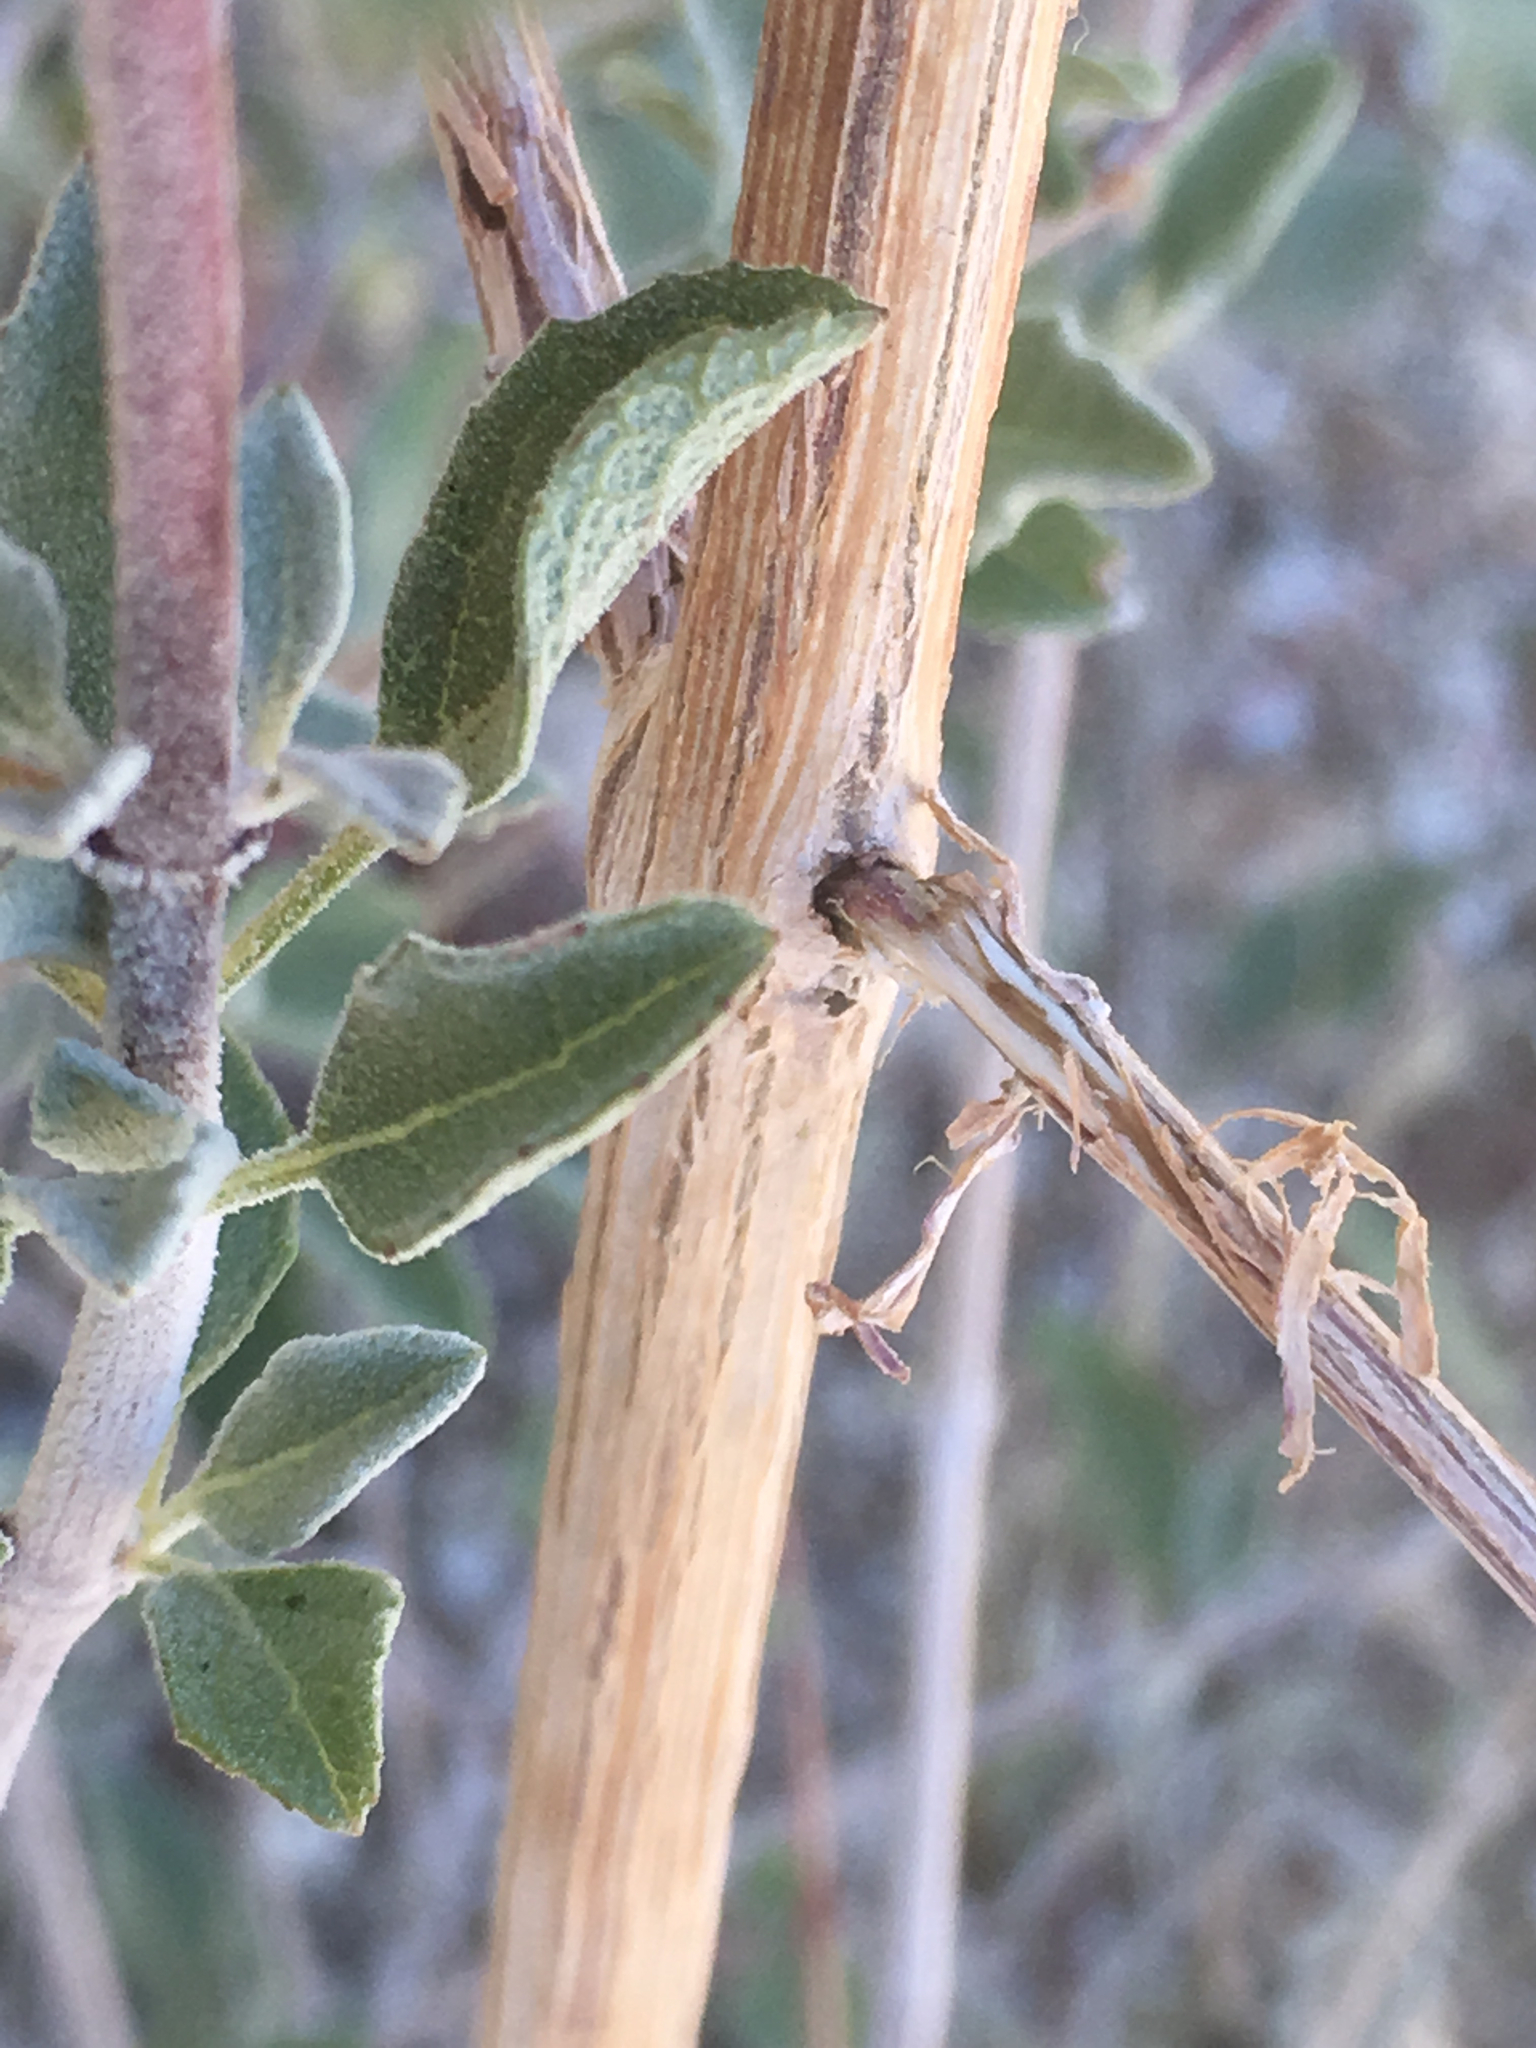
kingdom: Plantae
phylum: Tracheophyta
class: Magnoliopsida
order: Lamiales
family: Lamiaceae
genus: Condea
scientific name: Condea emoryi
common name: Chia
